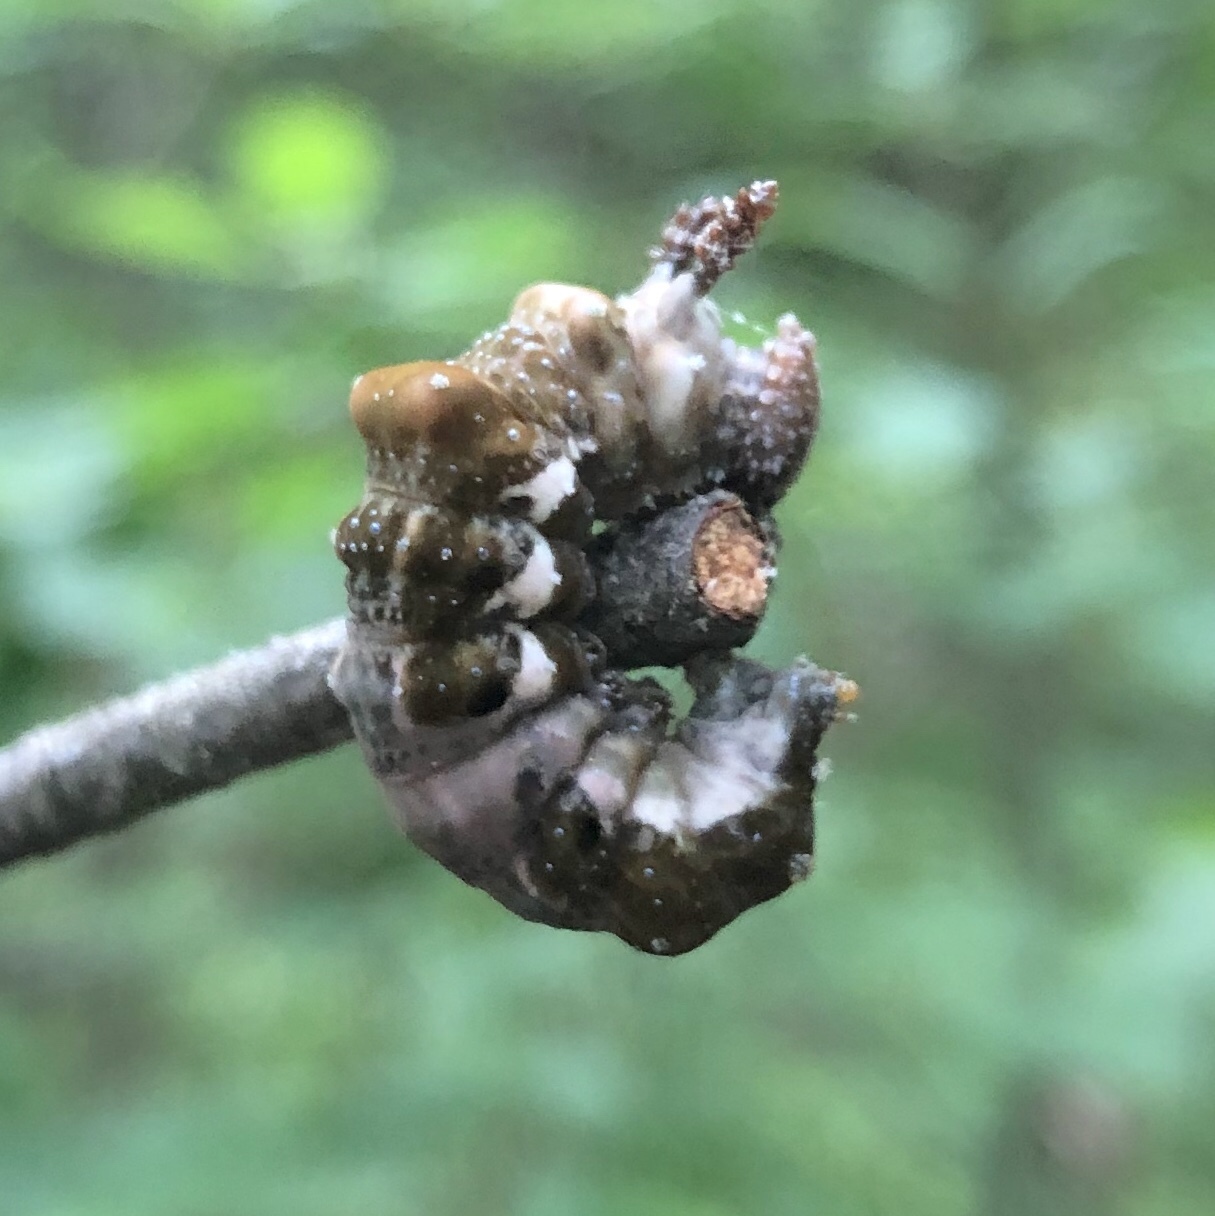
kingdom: Animalia
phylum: Arthropoda
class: Insecta
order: Lepidoptera
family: Nymphalidae
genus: Limenitis
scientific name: Limenitis
